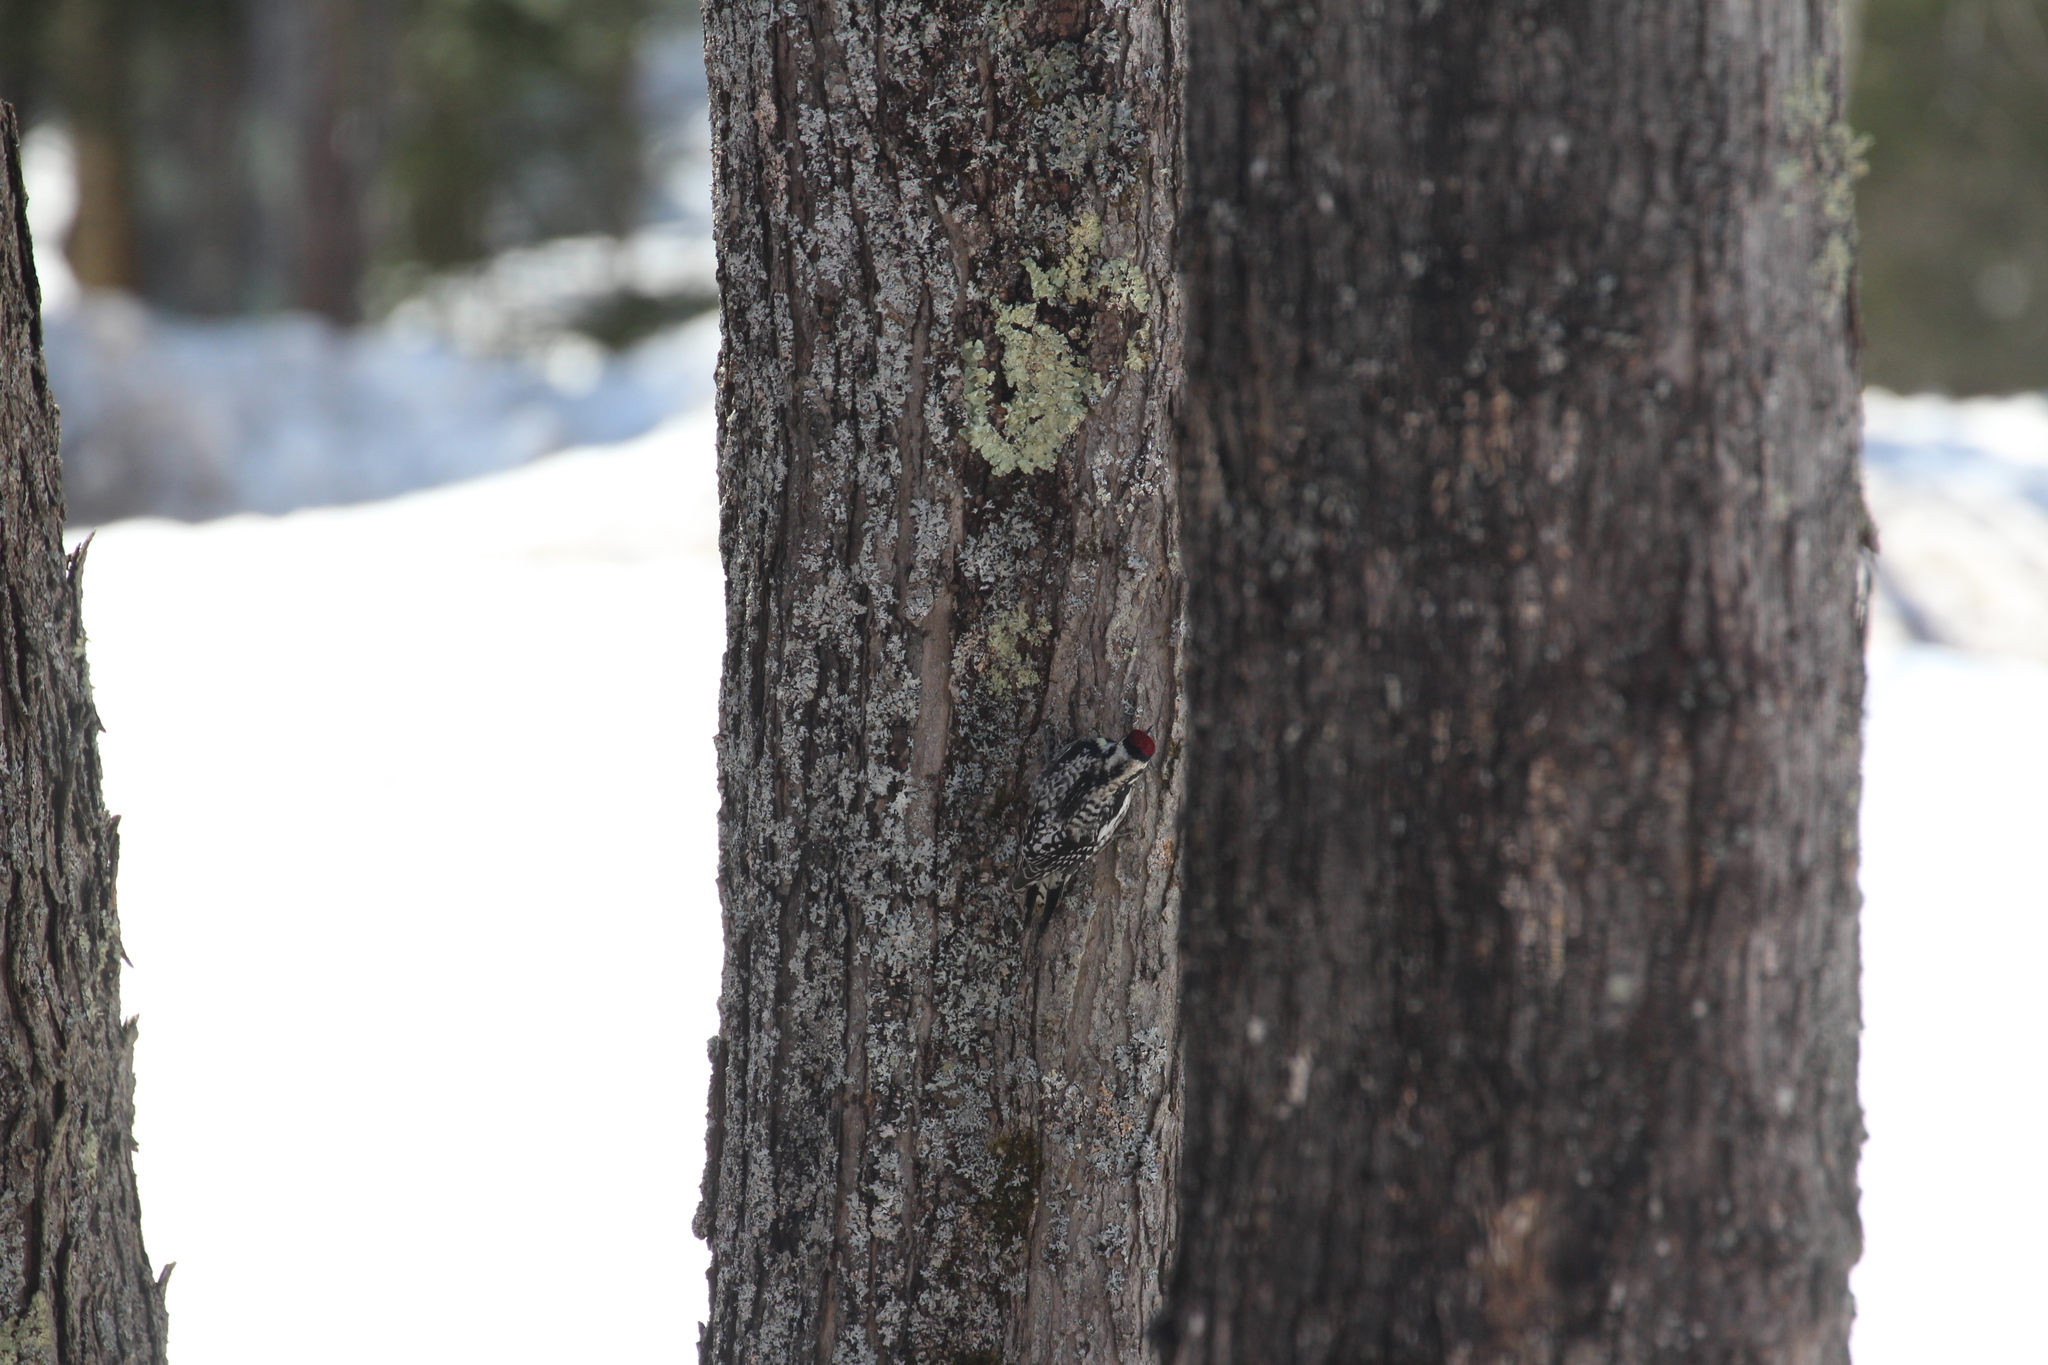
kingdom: Animalia
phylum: Chordata
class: Aves
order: Piciformes
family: Picidae
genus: Sphyrapicus
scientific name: Sphyrapicus varius
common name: Yellow-bellied sapsucker
